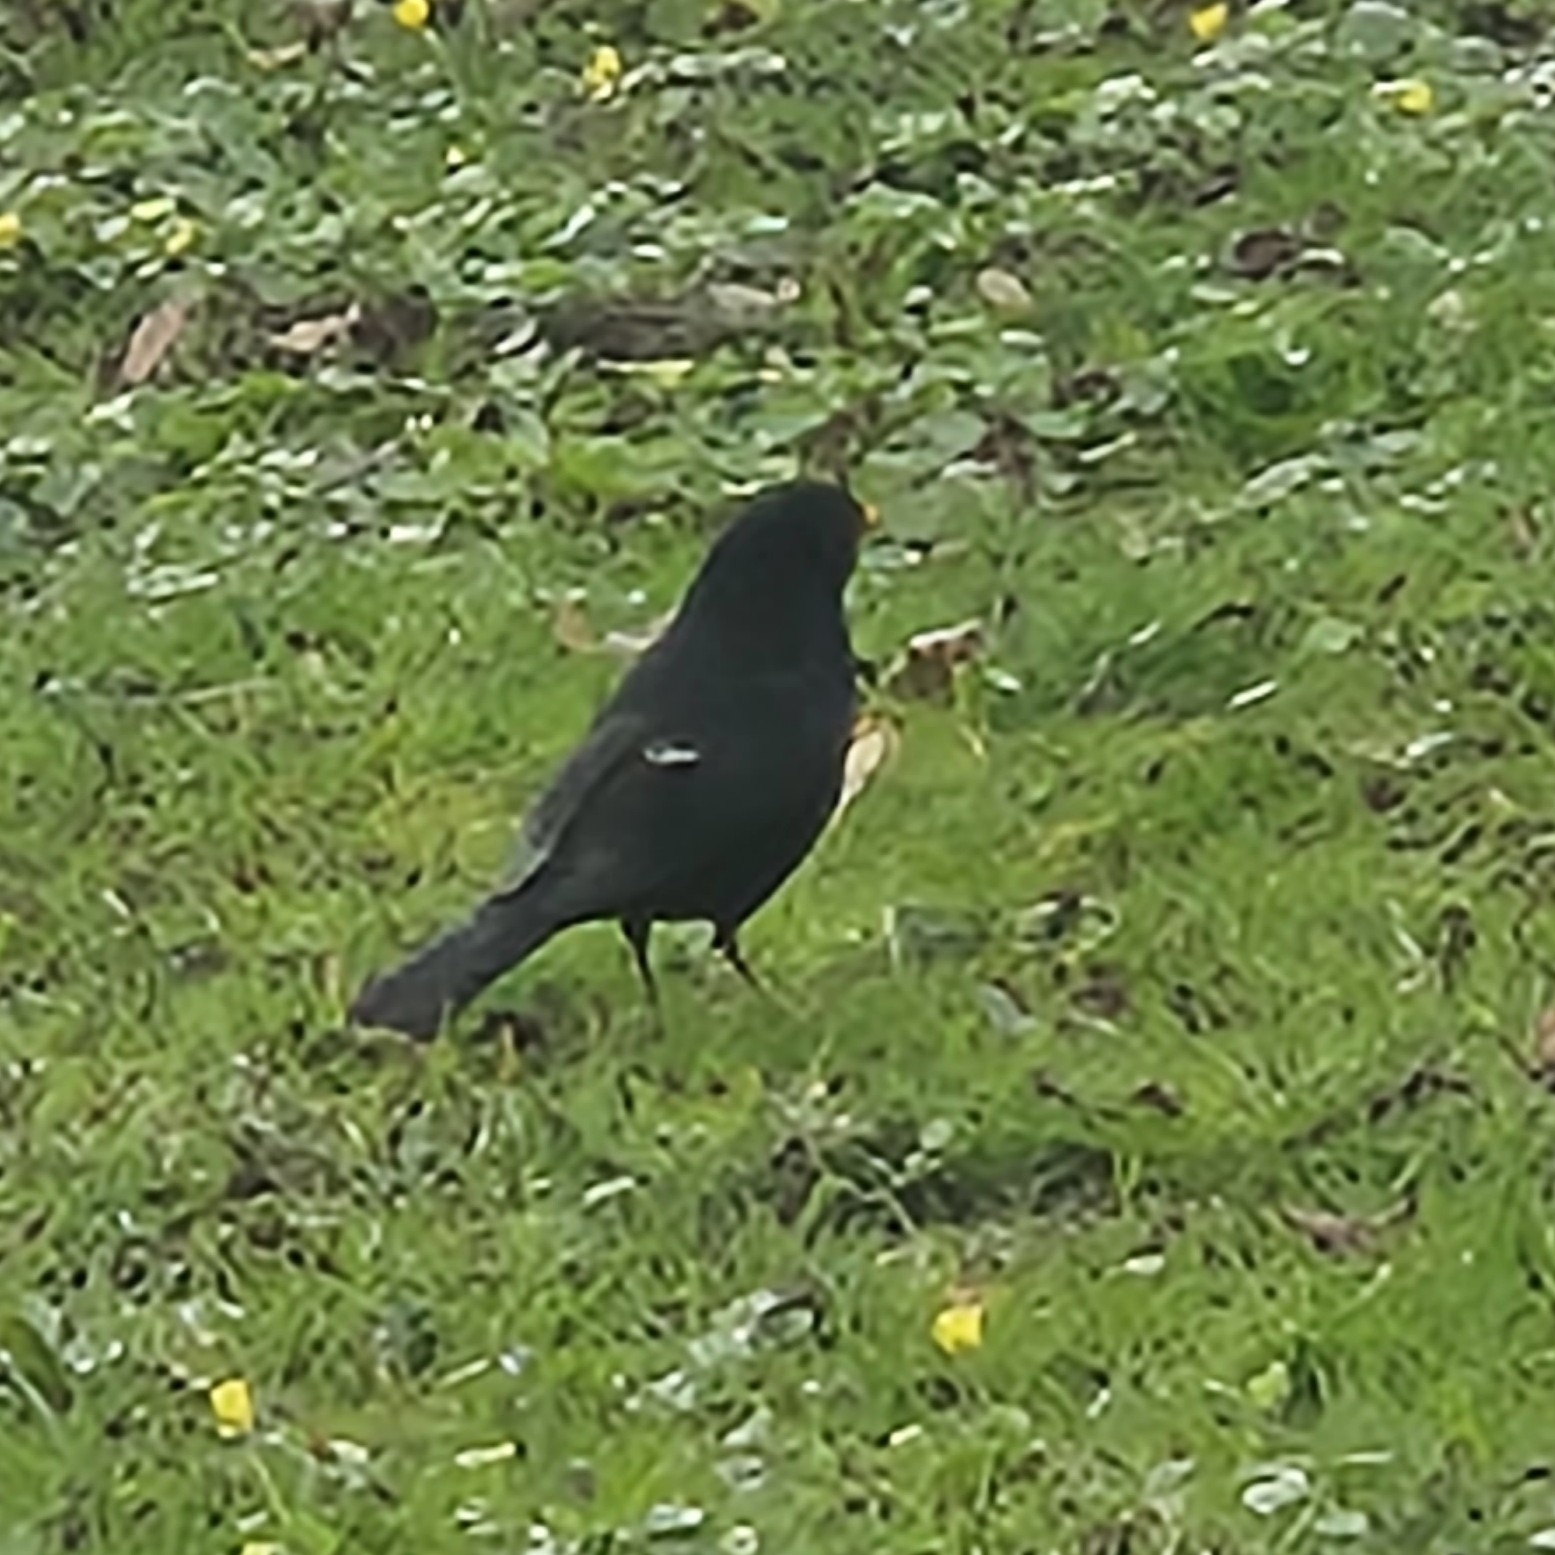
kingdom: Animalia
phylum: Chordata
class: Aves
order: Passeriformes
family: Turdidae
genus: Turdus
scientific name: Turdus merula
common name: Common blackbird
